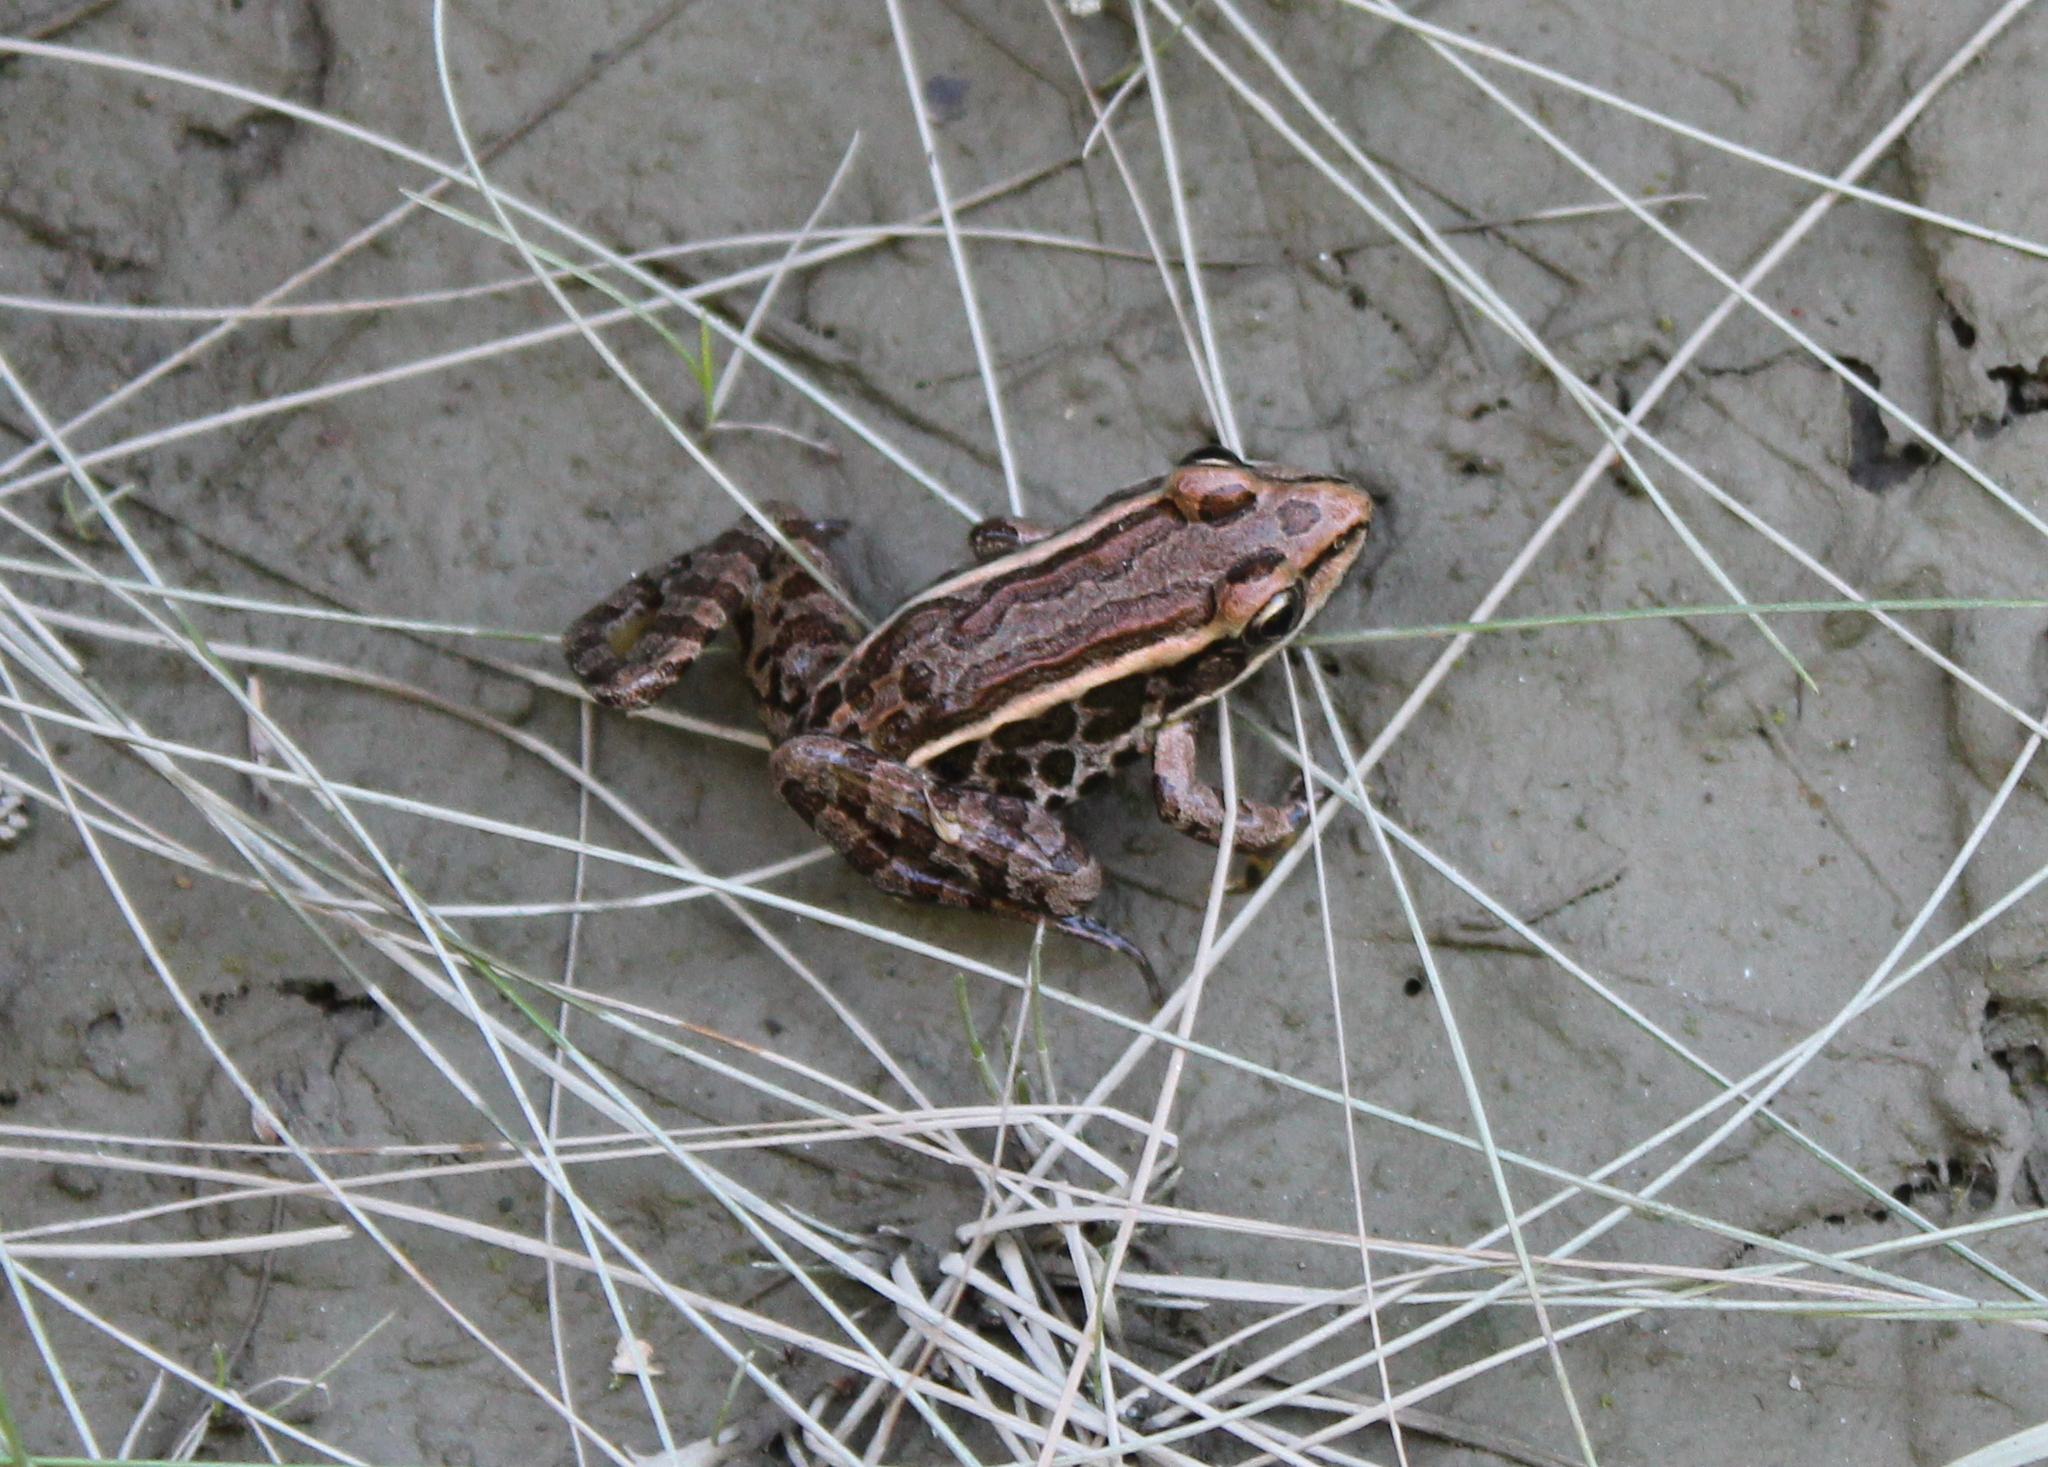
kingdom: Animalia
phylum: Chordata
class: Amphibia
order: Anura
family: Ranidae
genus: Lithobates
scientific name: Lithobates palustris
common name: Pickerel frog
